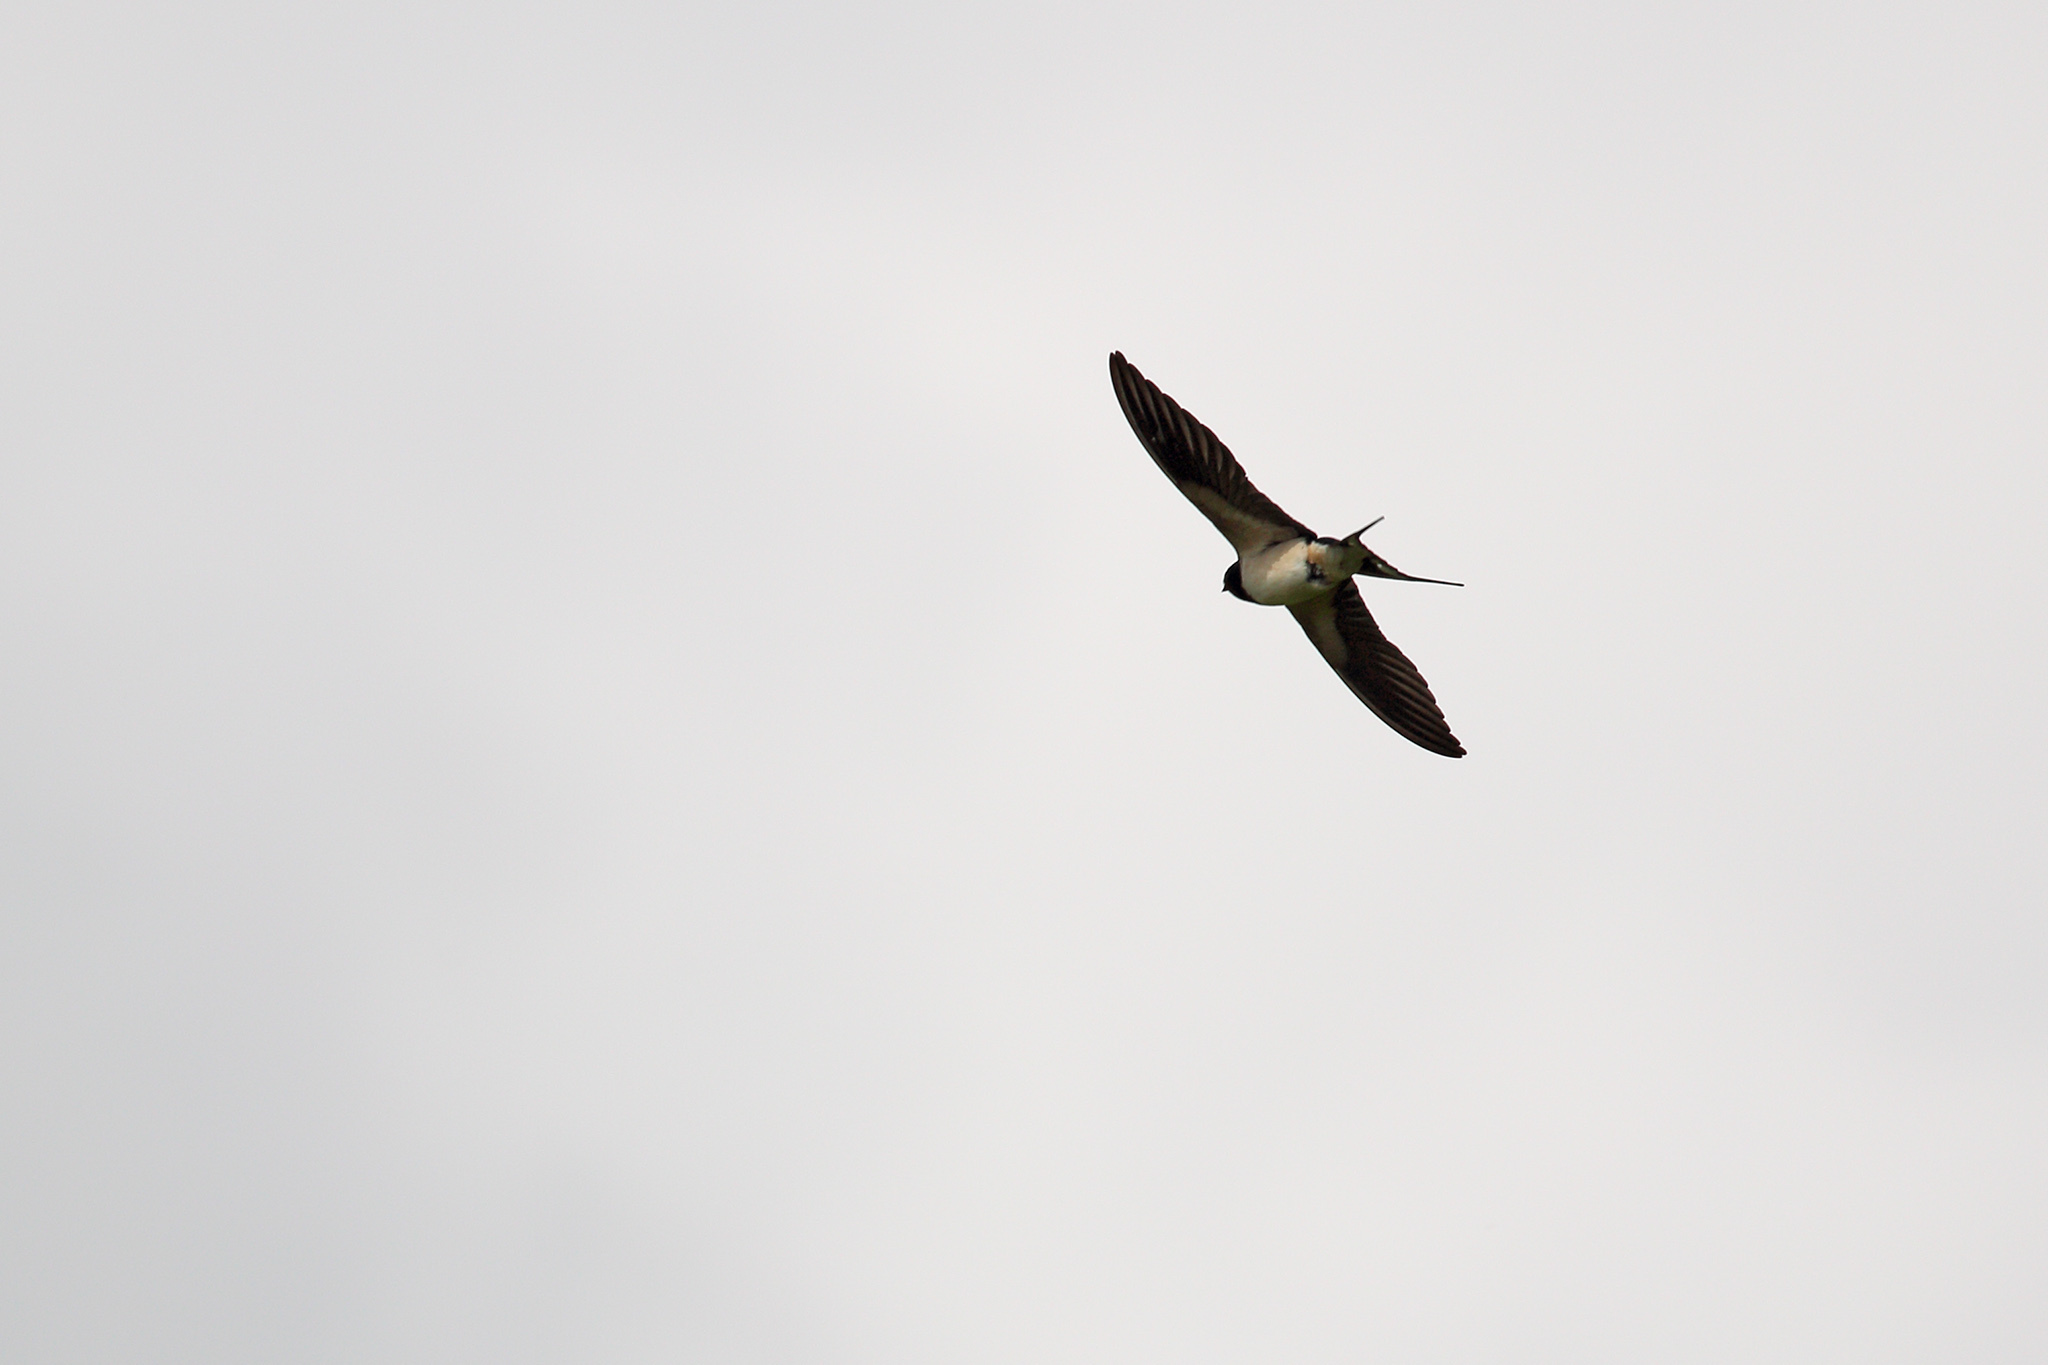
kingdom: Animalia
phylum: Chordata
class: Aves
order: Passeriformes
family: Hirundinidae
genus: Hirundo
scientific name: Hirundo rustica
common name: Barn swallow
